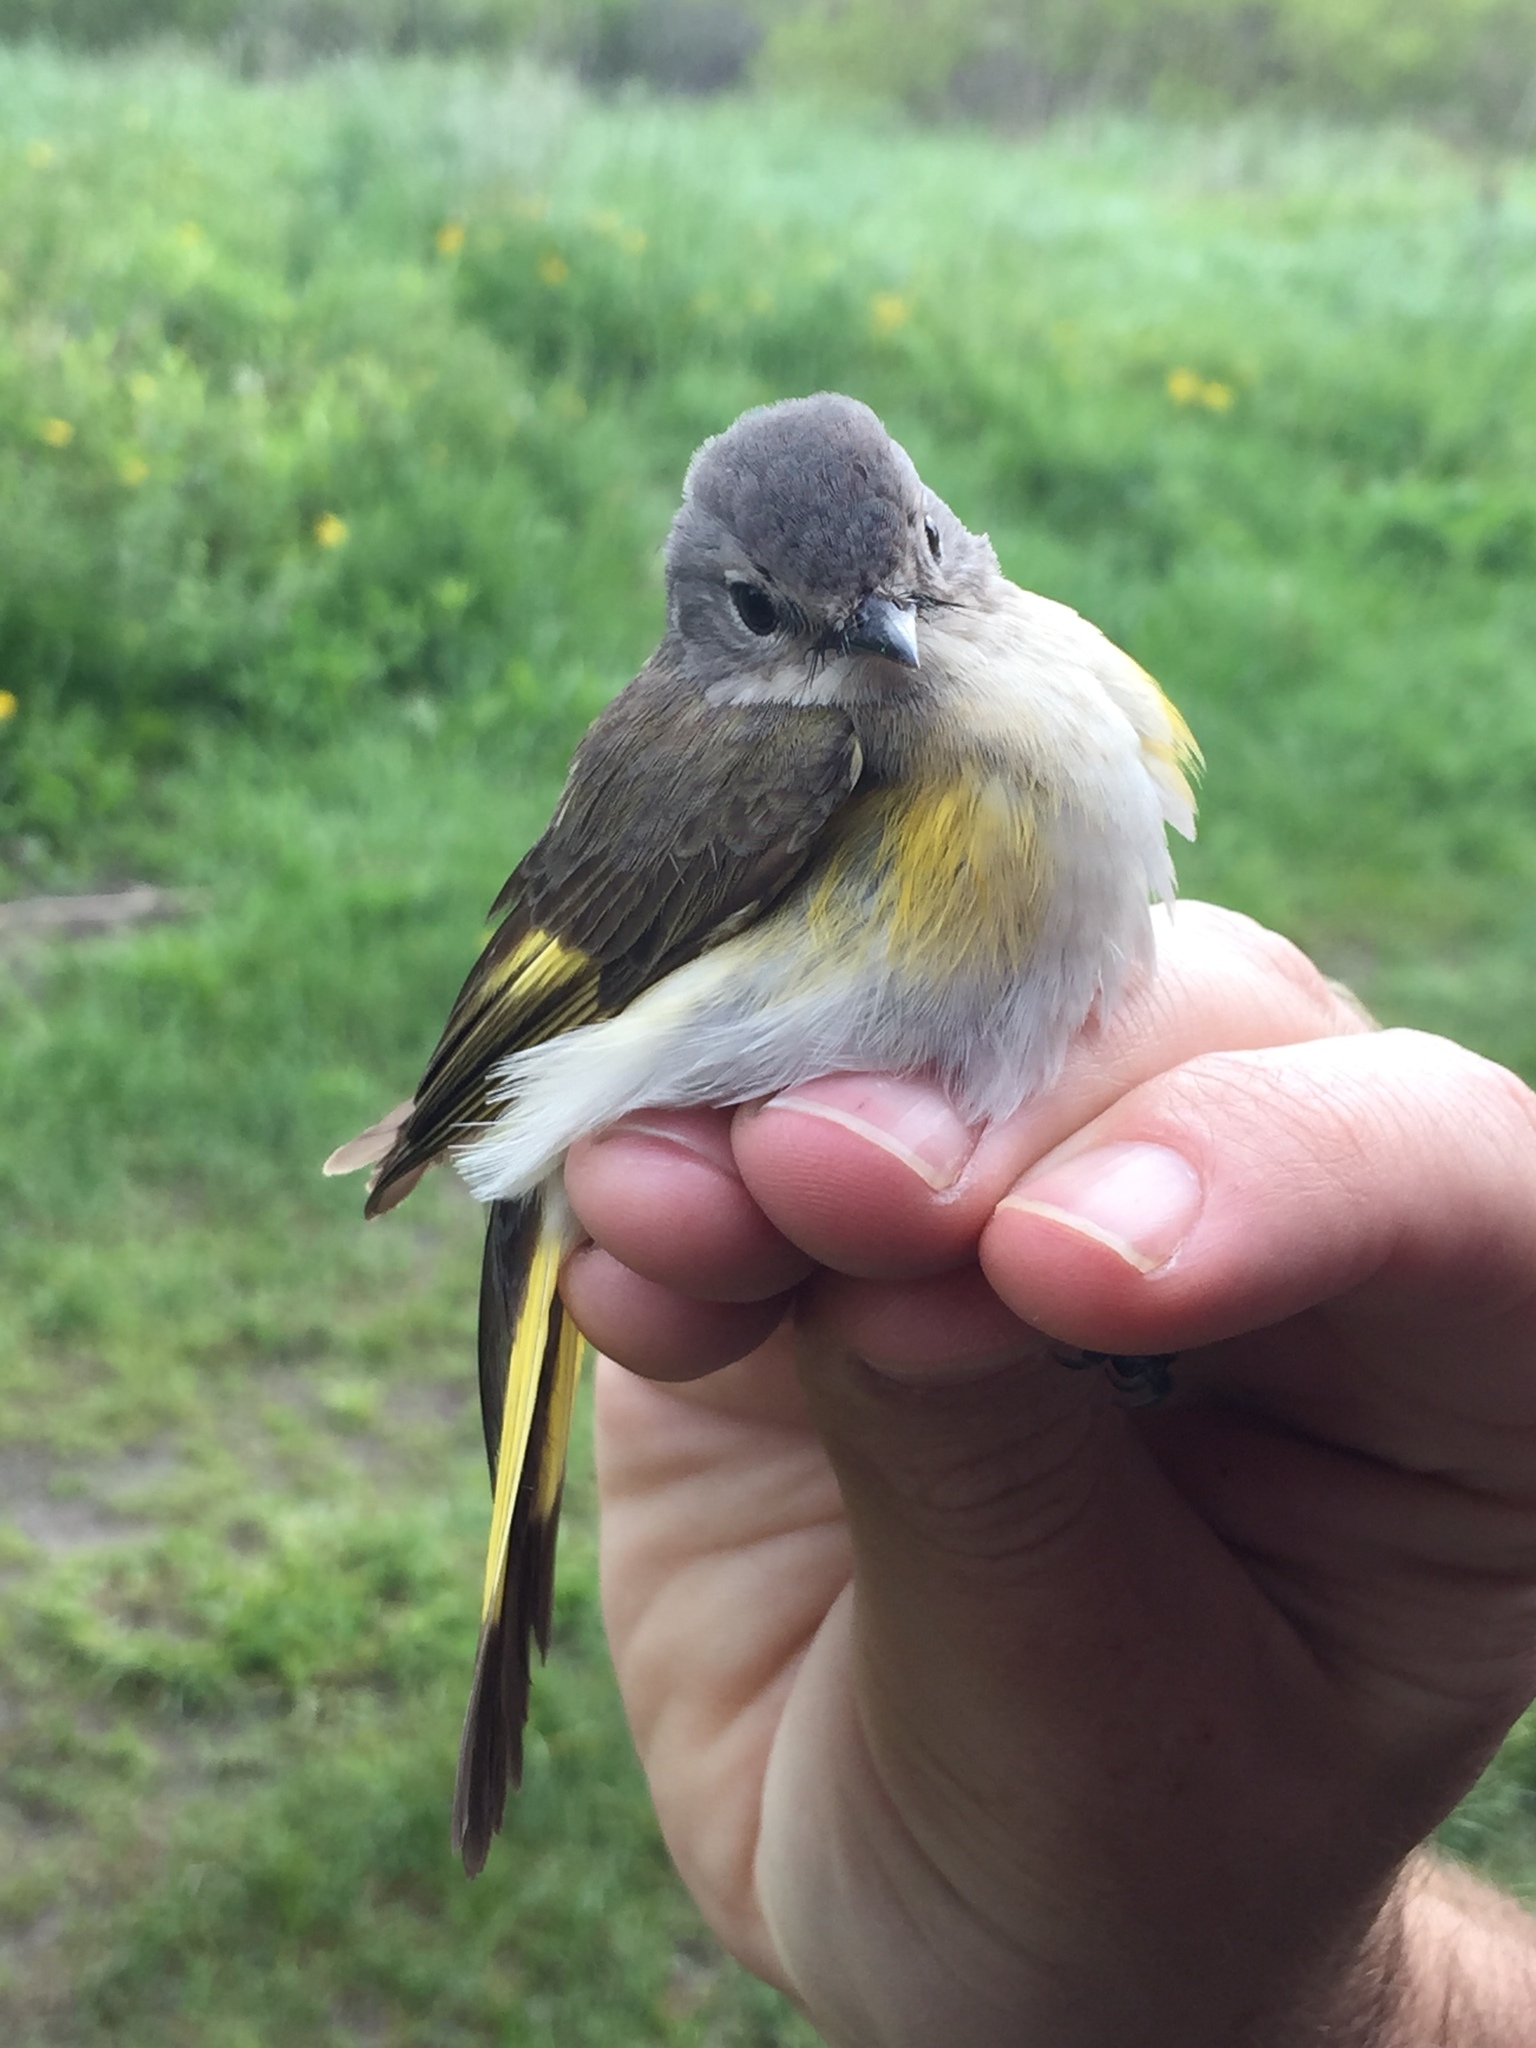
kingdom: Animalia
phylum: Chordata
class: Aves
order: Passeriformes
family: Parulidae
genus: Setophaga
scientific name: Setophaga ruticilla
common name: American redstart
